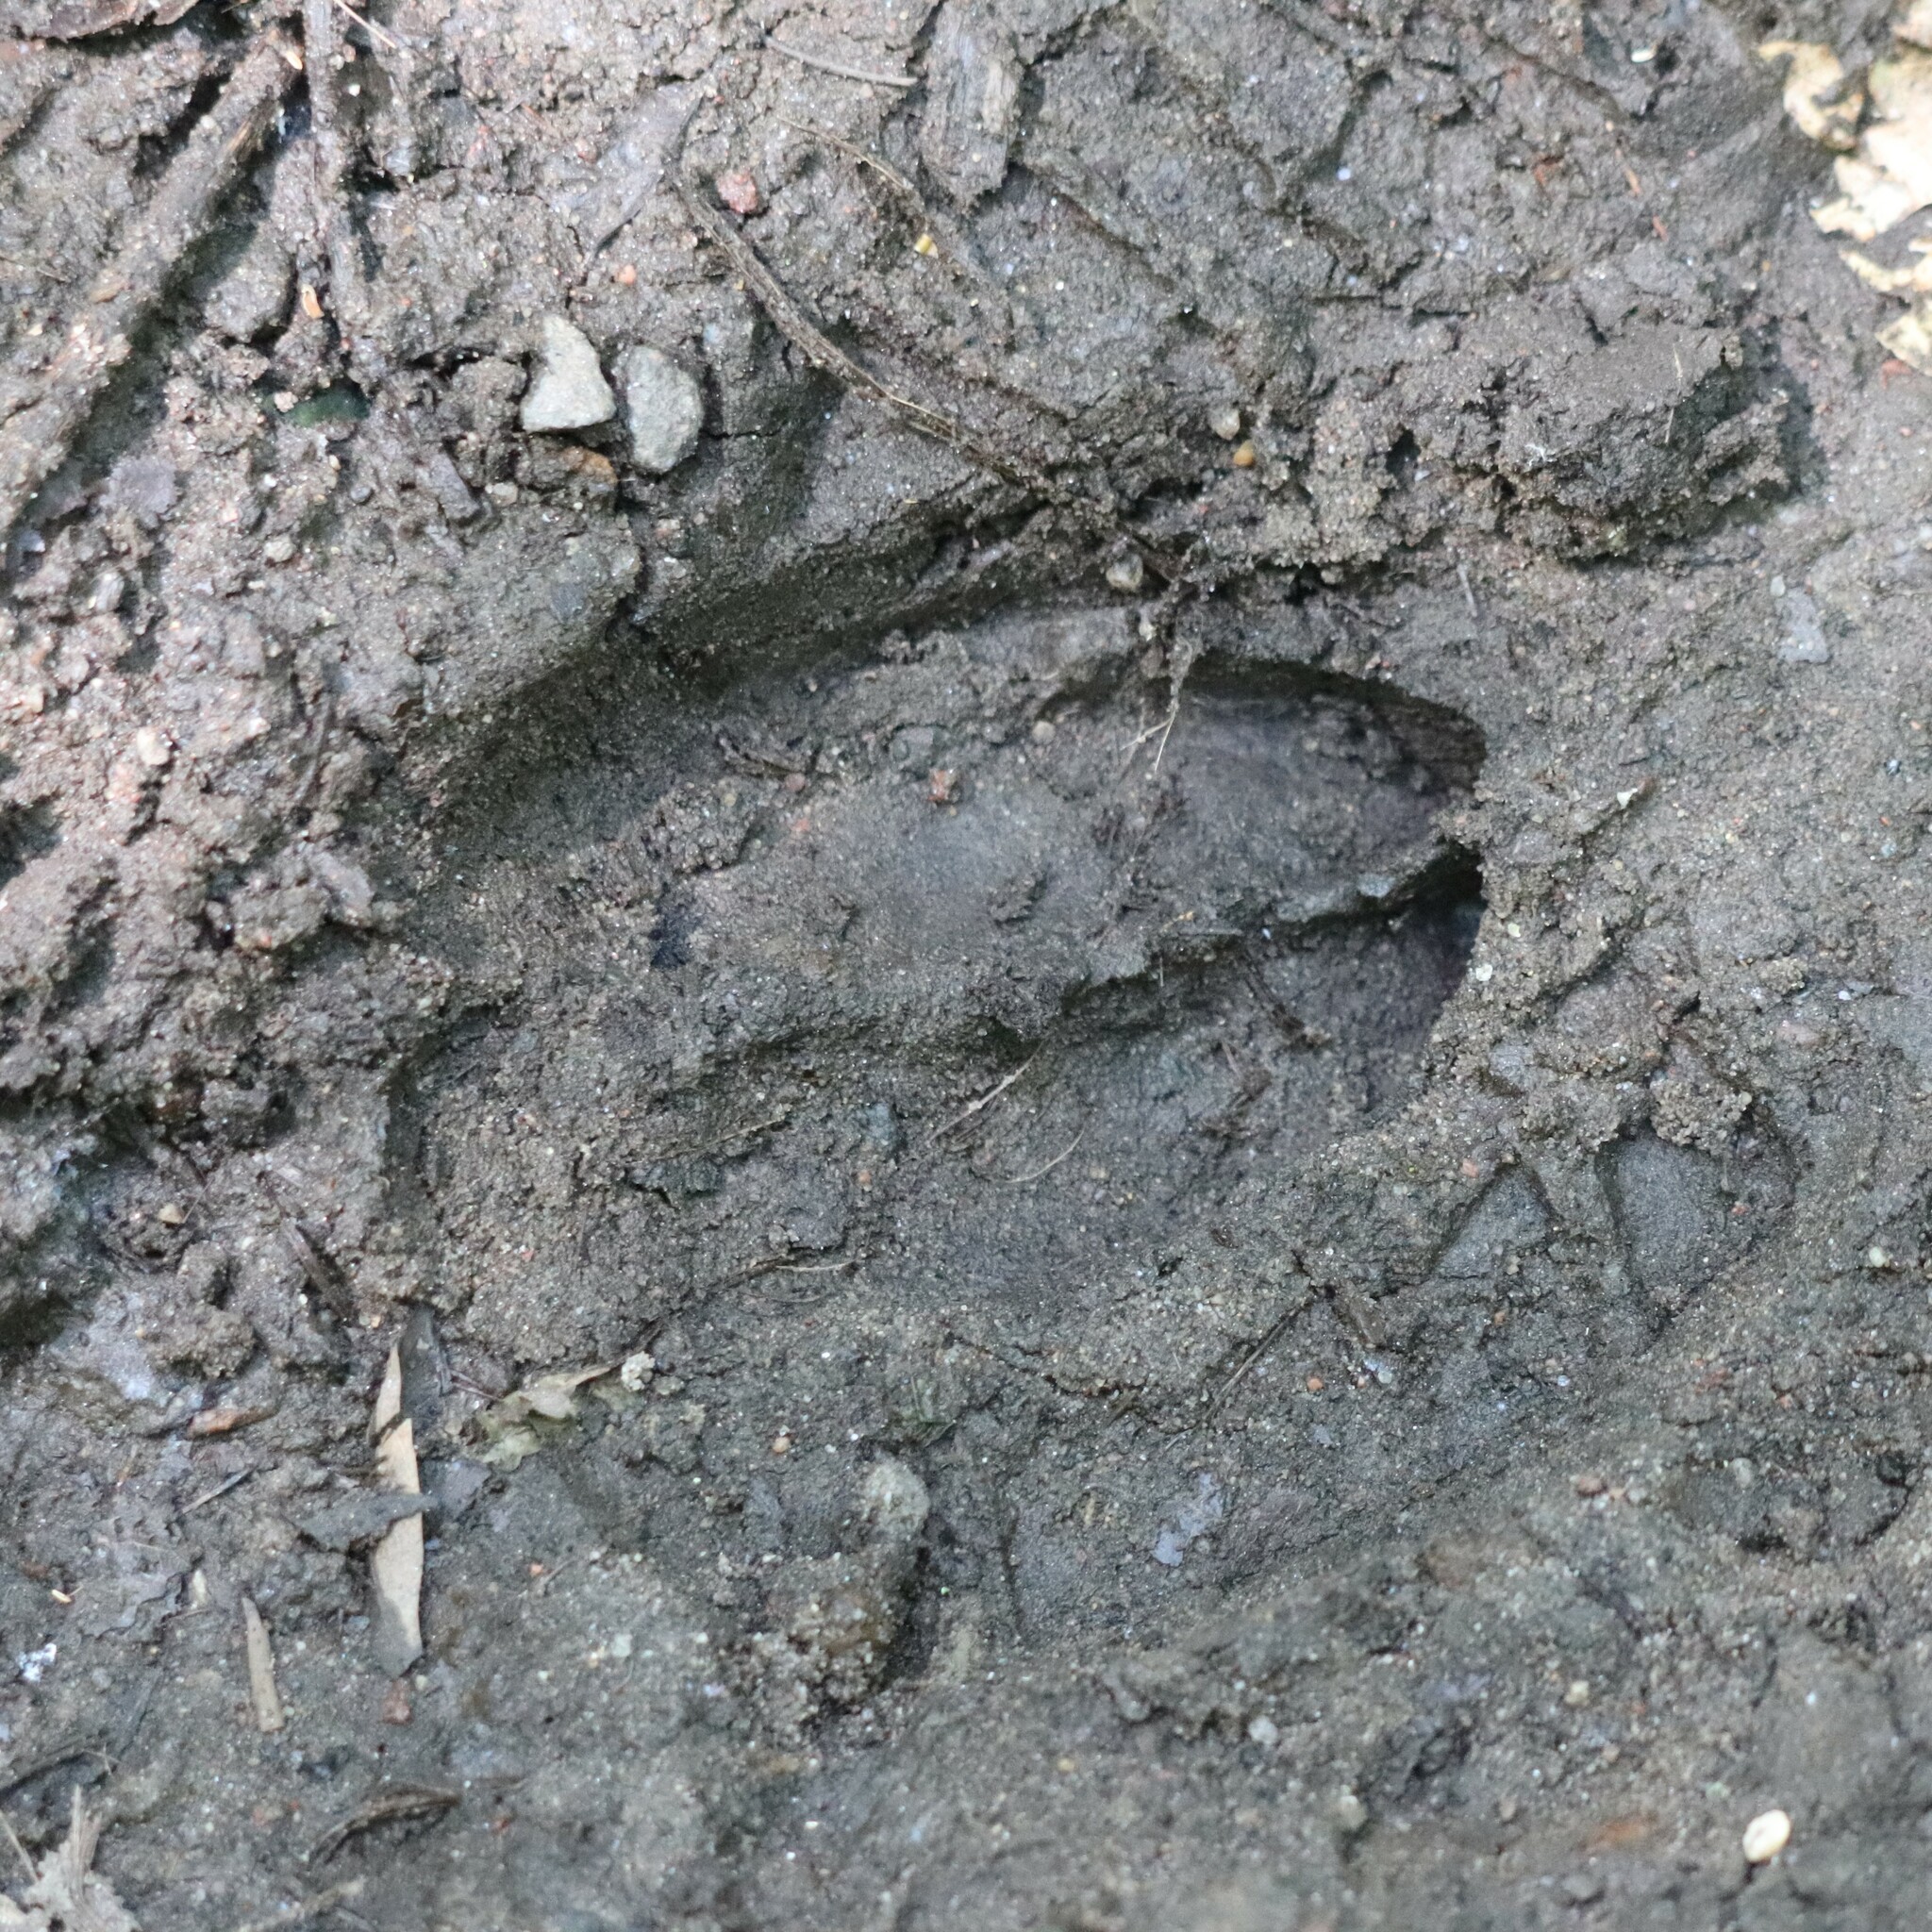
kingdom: Animalia
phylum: Chordata
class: Mammalia
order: Artiodactyla
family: Cervidae
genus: Odocoileus
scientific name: Odocoileus virginianus
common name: White-tailed deer
